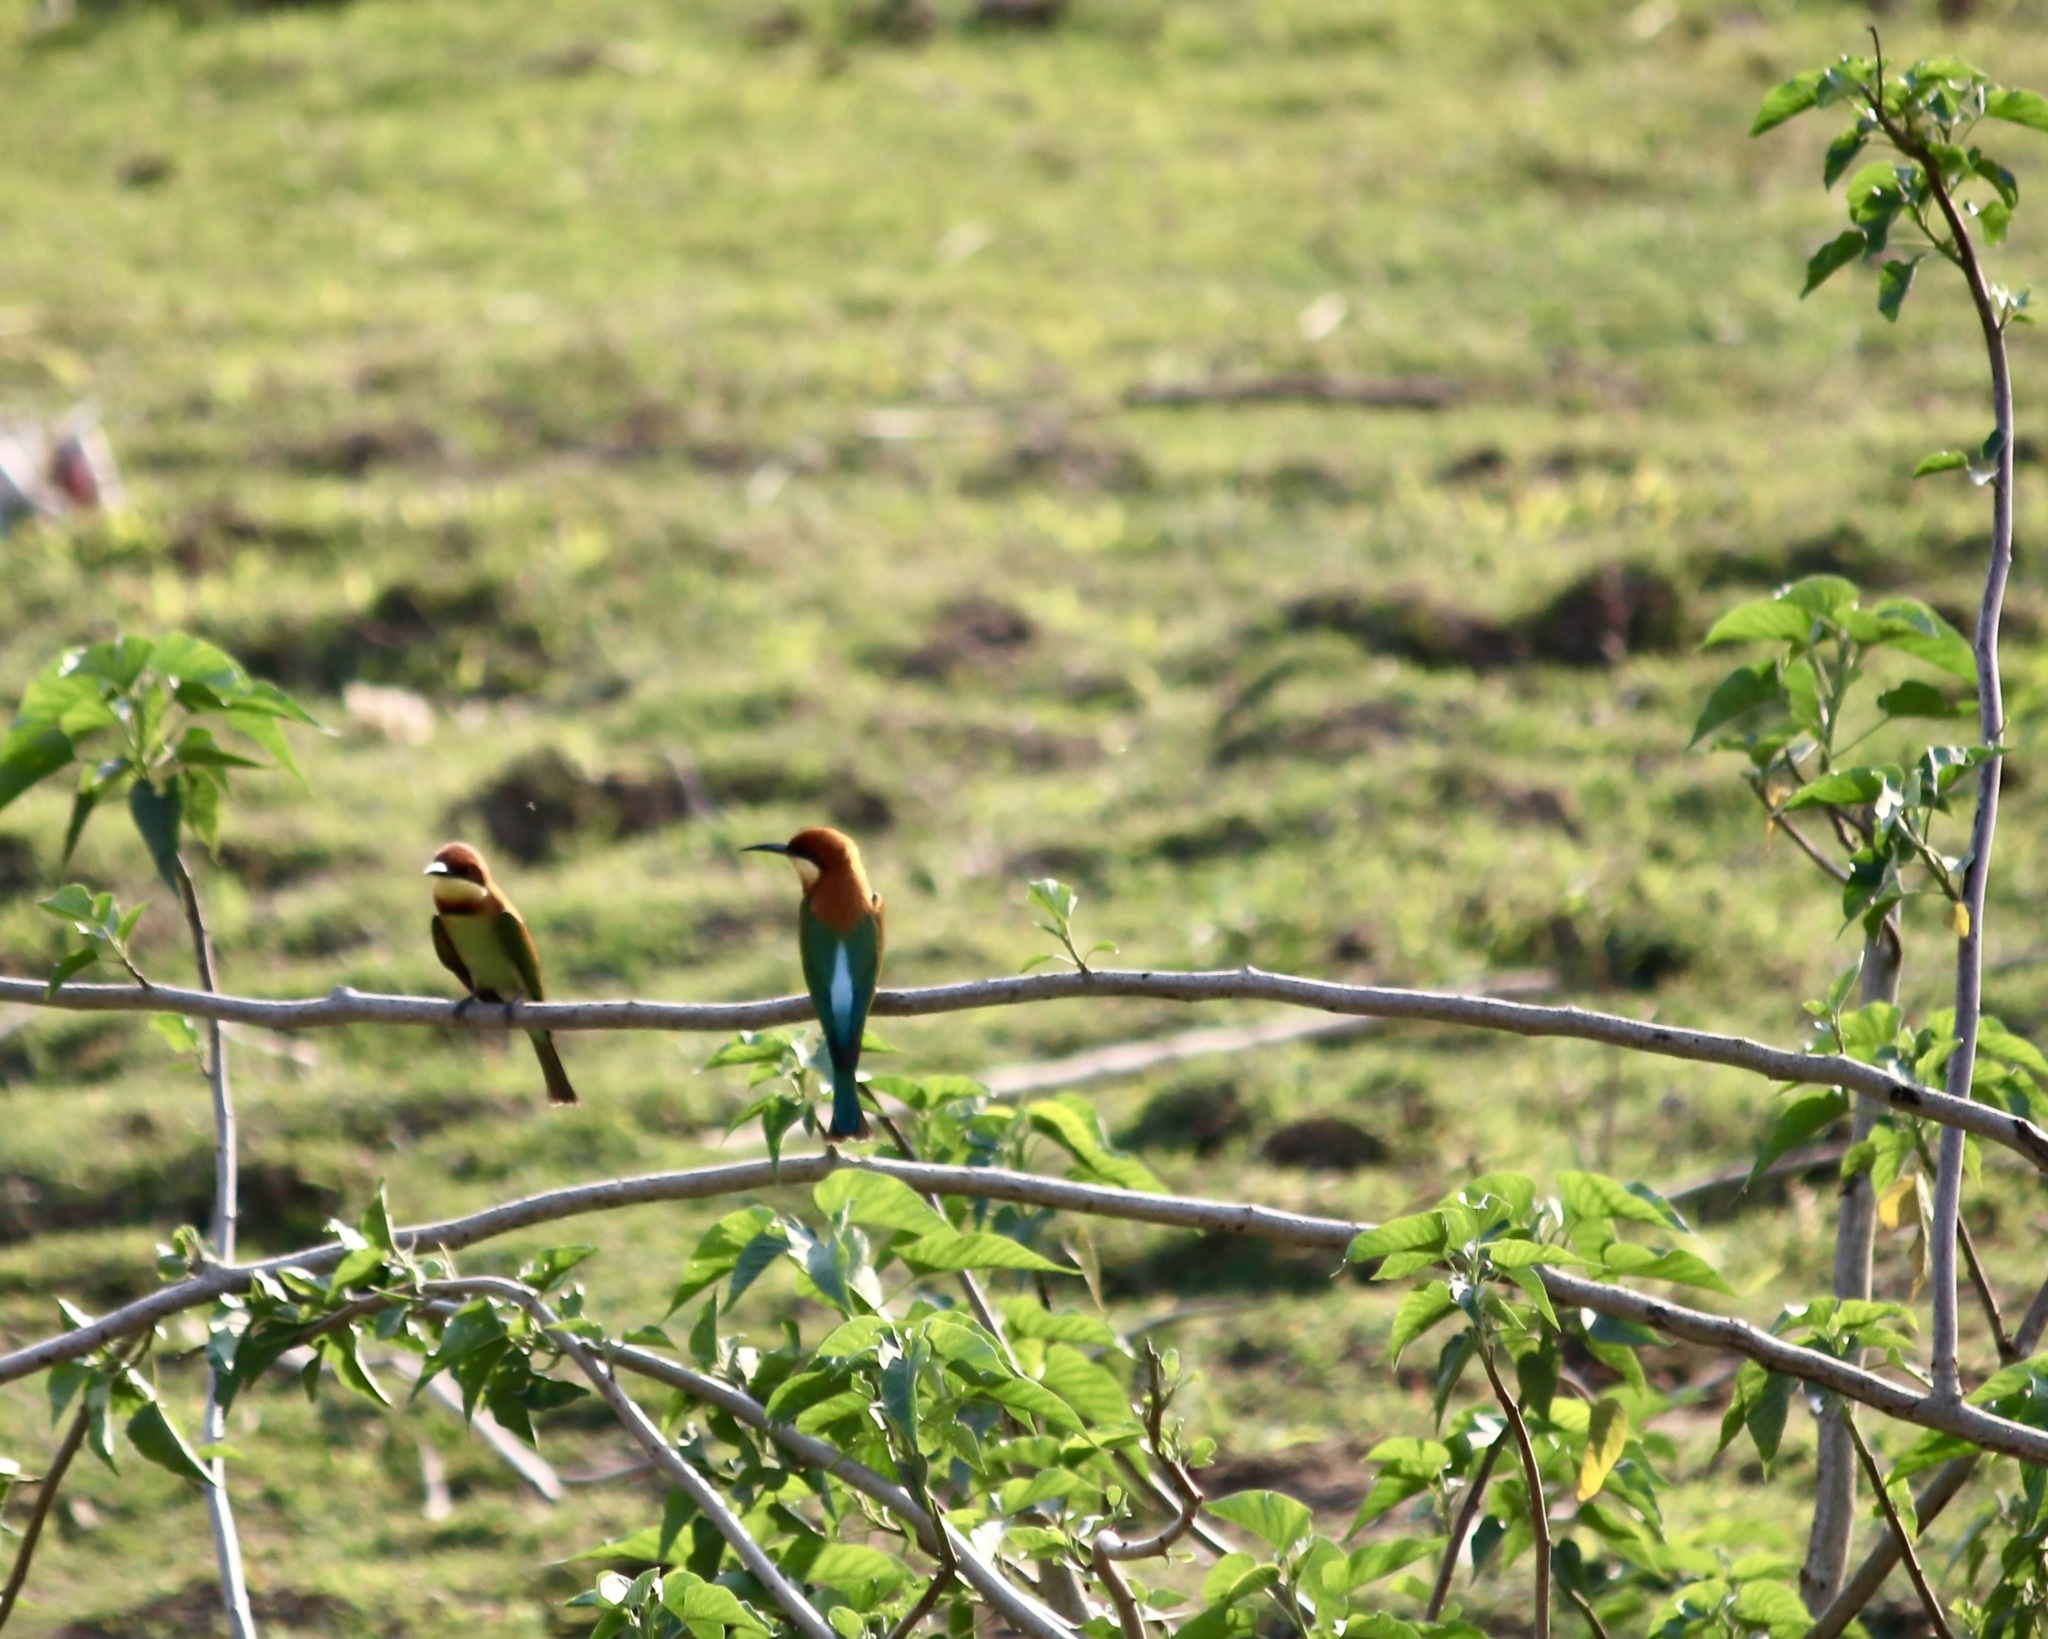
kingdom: Animalia
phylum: Chordata
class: Aves
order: Coraciiformes
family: Meropidae
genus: Merops
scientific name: Merops leschenaulti
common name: Chestnut-headed bee-eater
